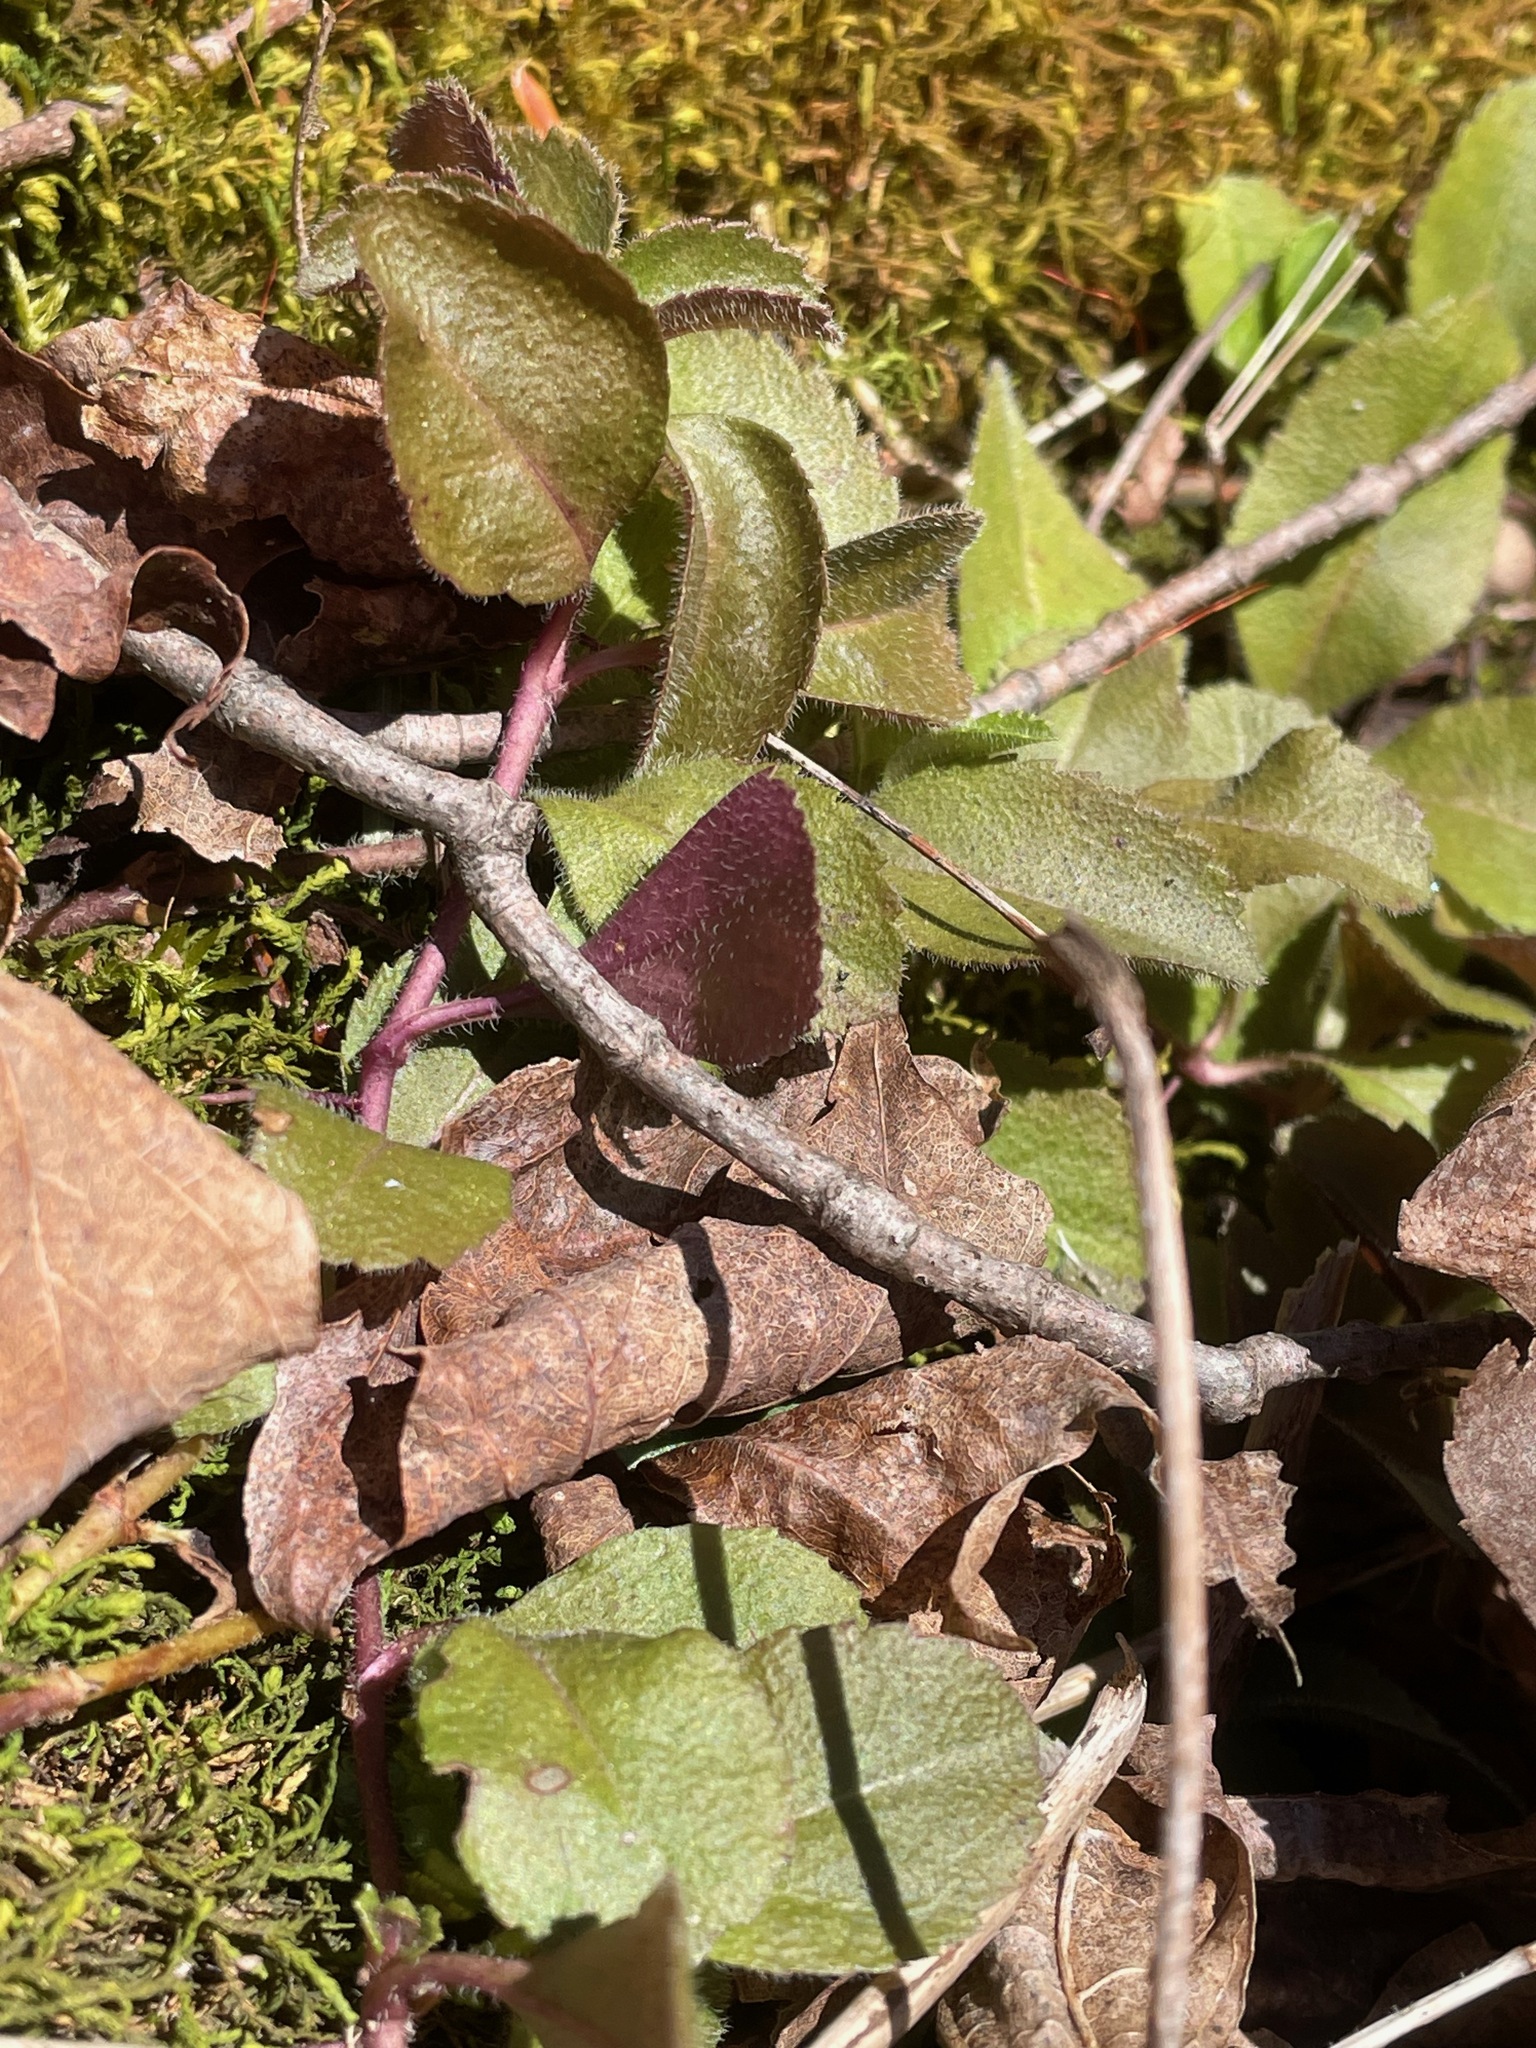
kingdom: Plantae
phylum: Tracheophyta
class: Magnoliopsida
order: Lamiales
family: Plantaginaceae
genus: Veronica
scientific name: Veronica officinalis
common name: Common speedwell
